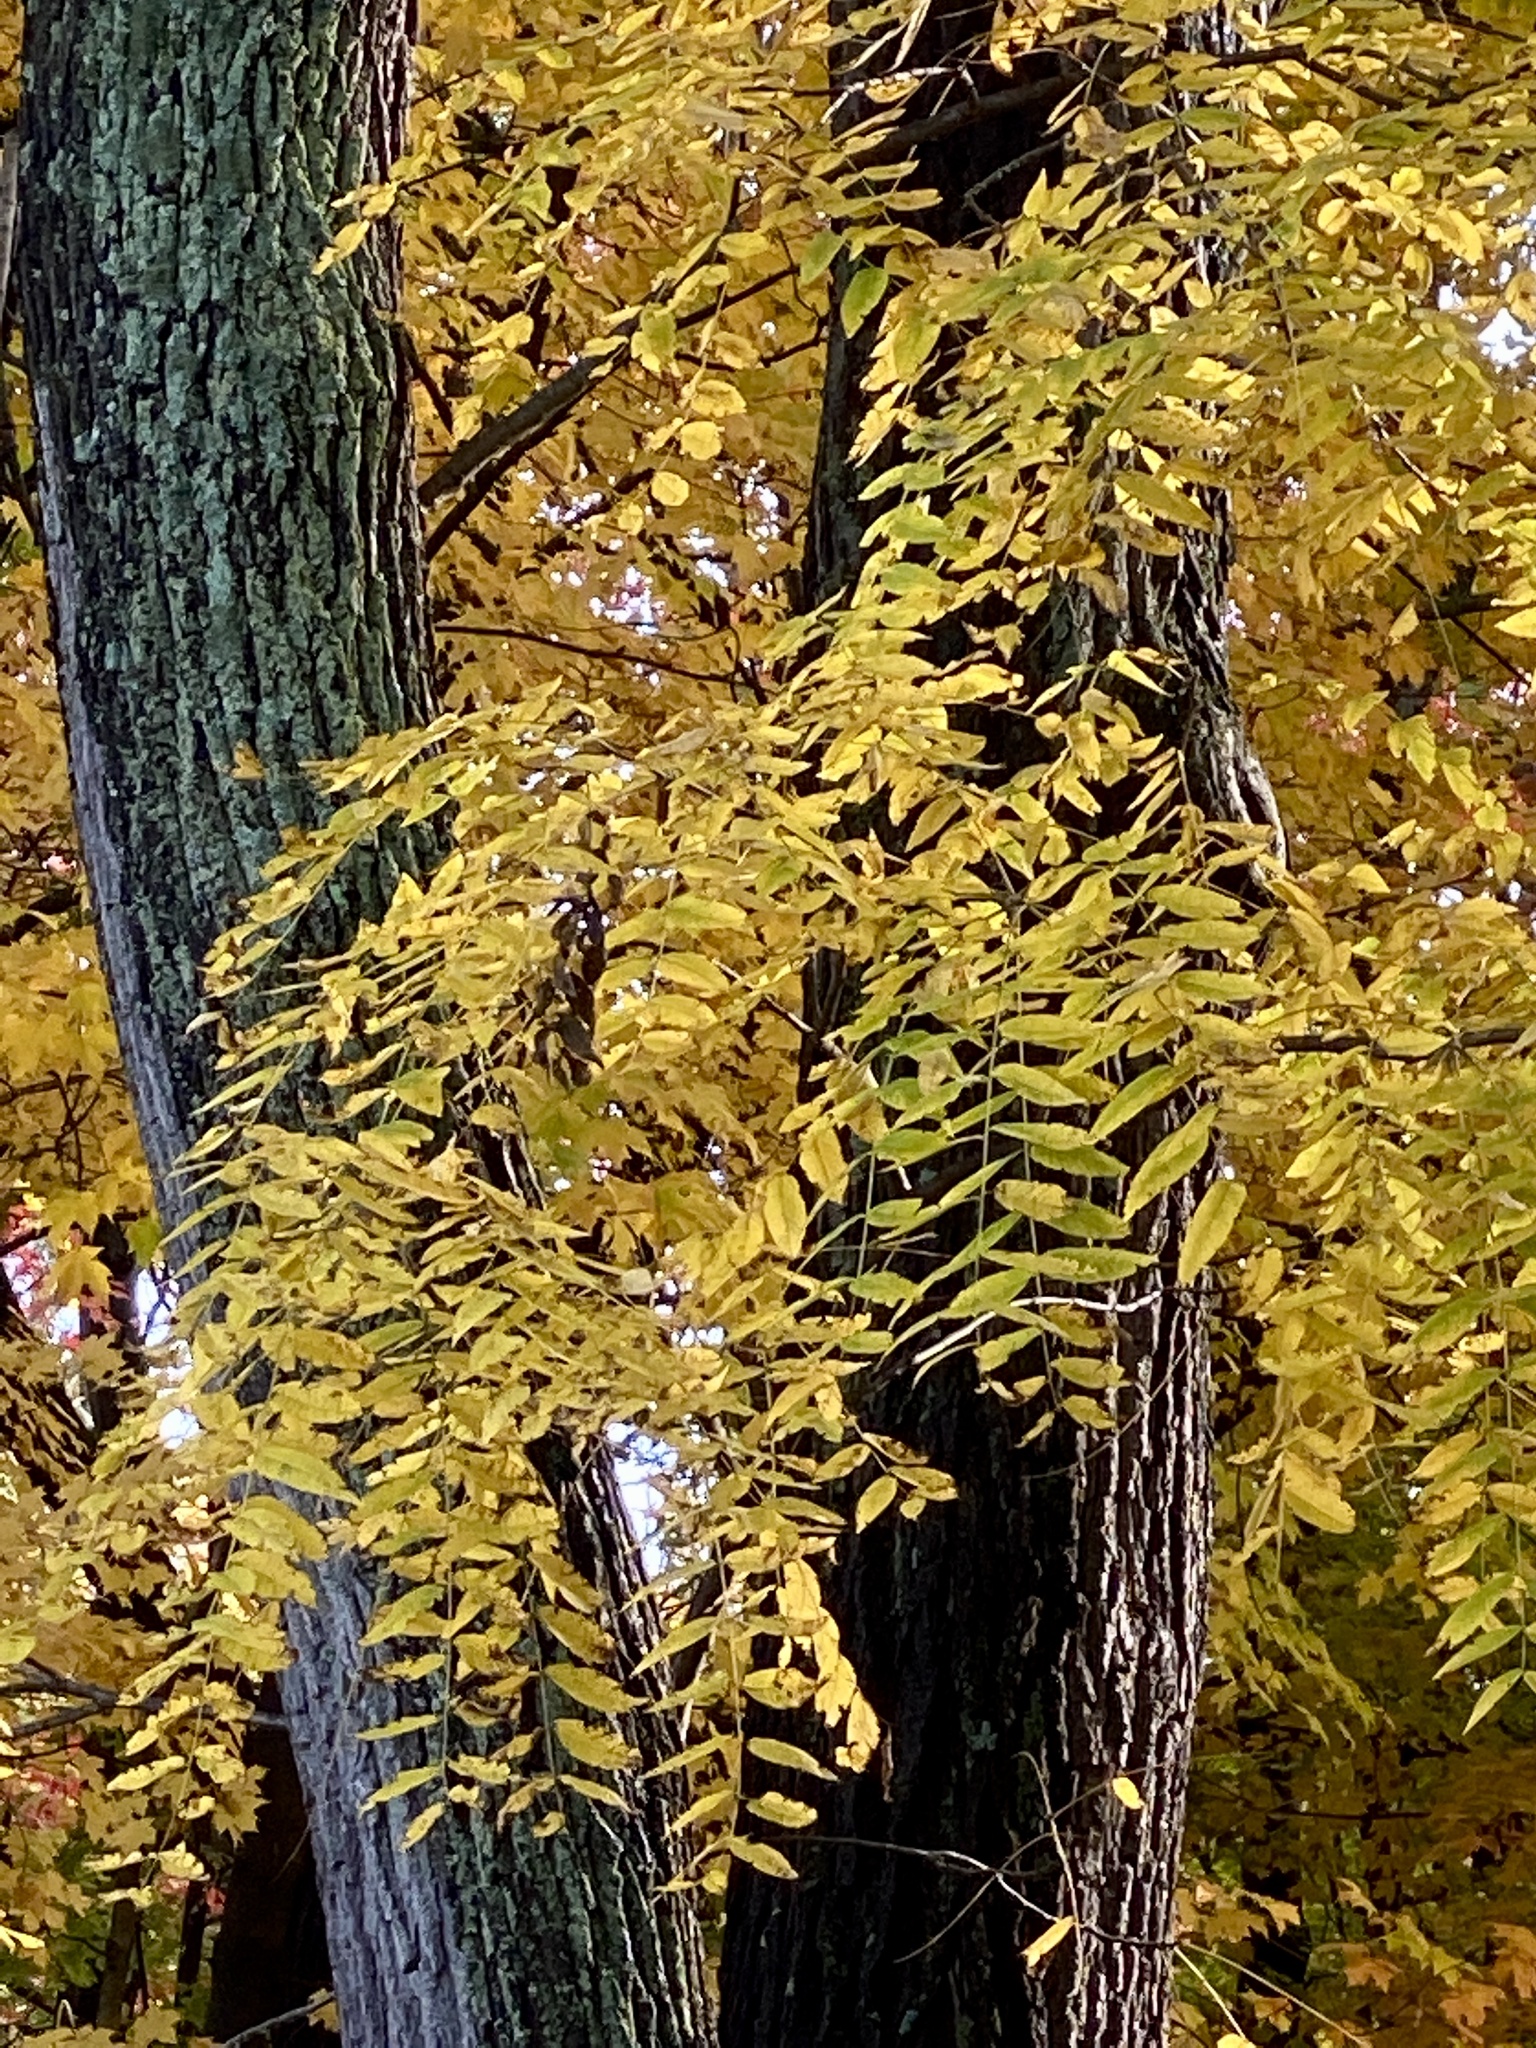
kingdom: Plantae
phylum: Tracheophyta
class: Magnoliopsida
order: Fagales
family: Juglandaceae
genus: Juglans
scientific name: Juglans nigra
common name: Black walnut
